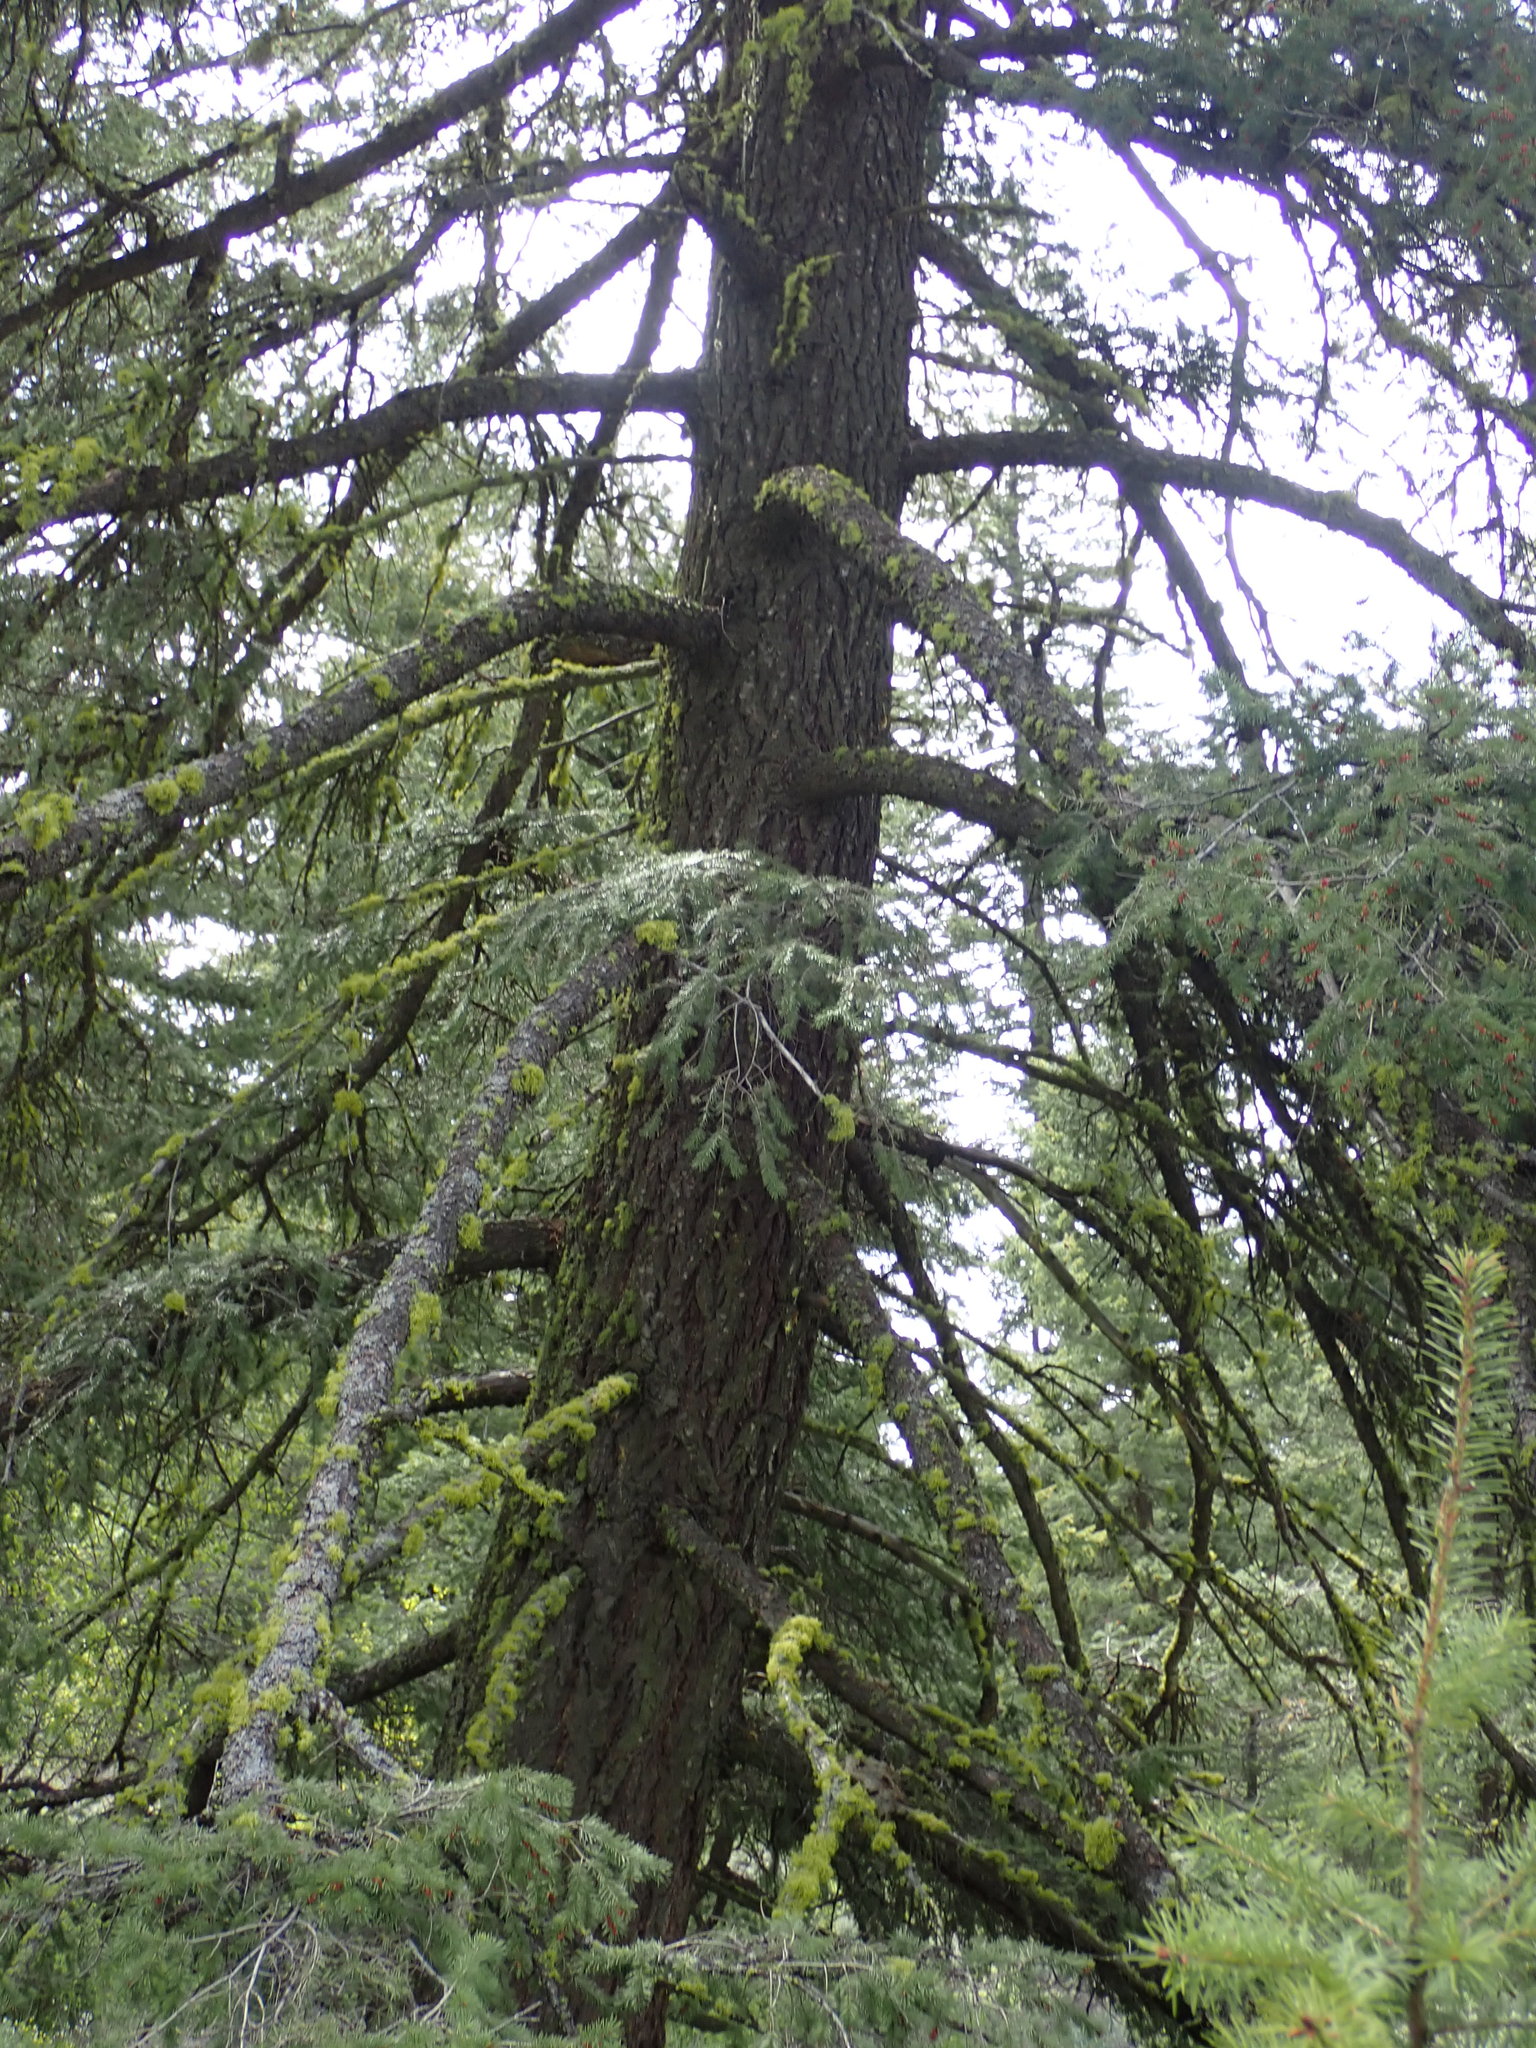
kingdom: Plantae
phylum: Tracheophyta
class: Pinopsida
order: Pinales
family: Pinaceae
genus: Pseudotsuga
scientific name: Pseudotsuga menziesii
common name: Douglas fir
